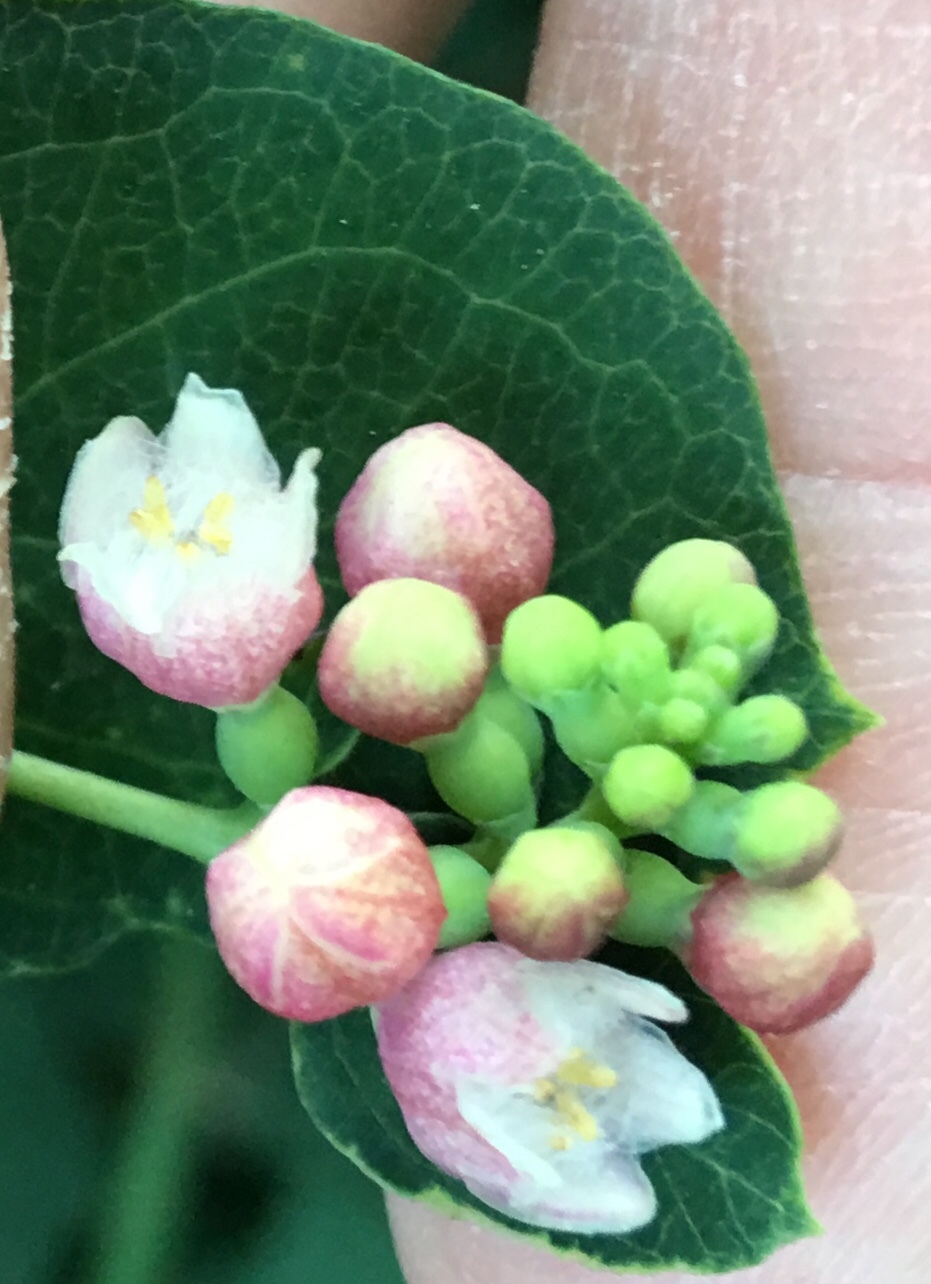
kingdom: Plantae
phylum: Tracheophyta
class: Magnoliopsida
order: Dipsacales
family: Caprifoliaceae
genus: Symphoricarpos
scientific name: Symphoricarpos albus
